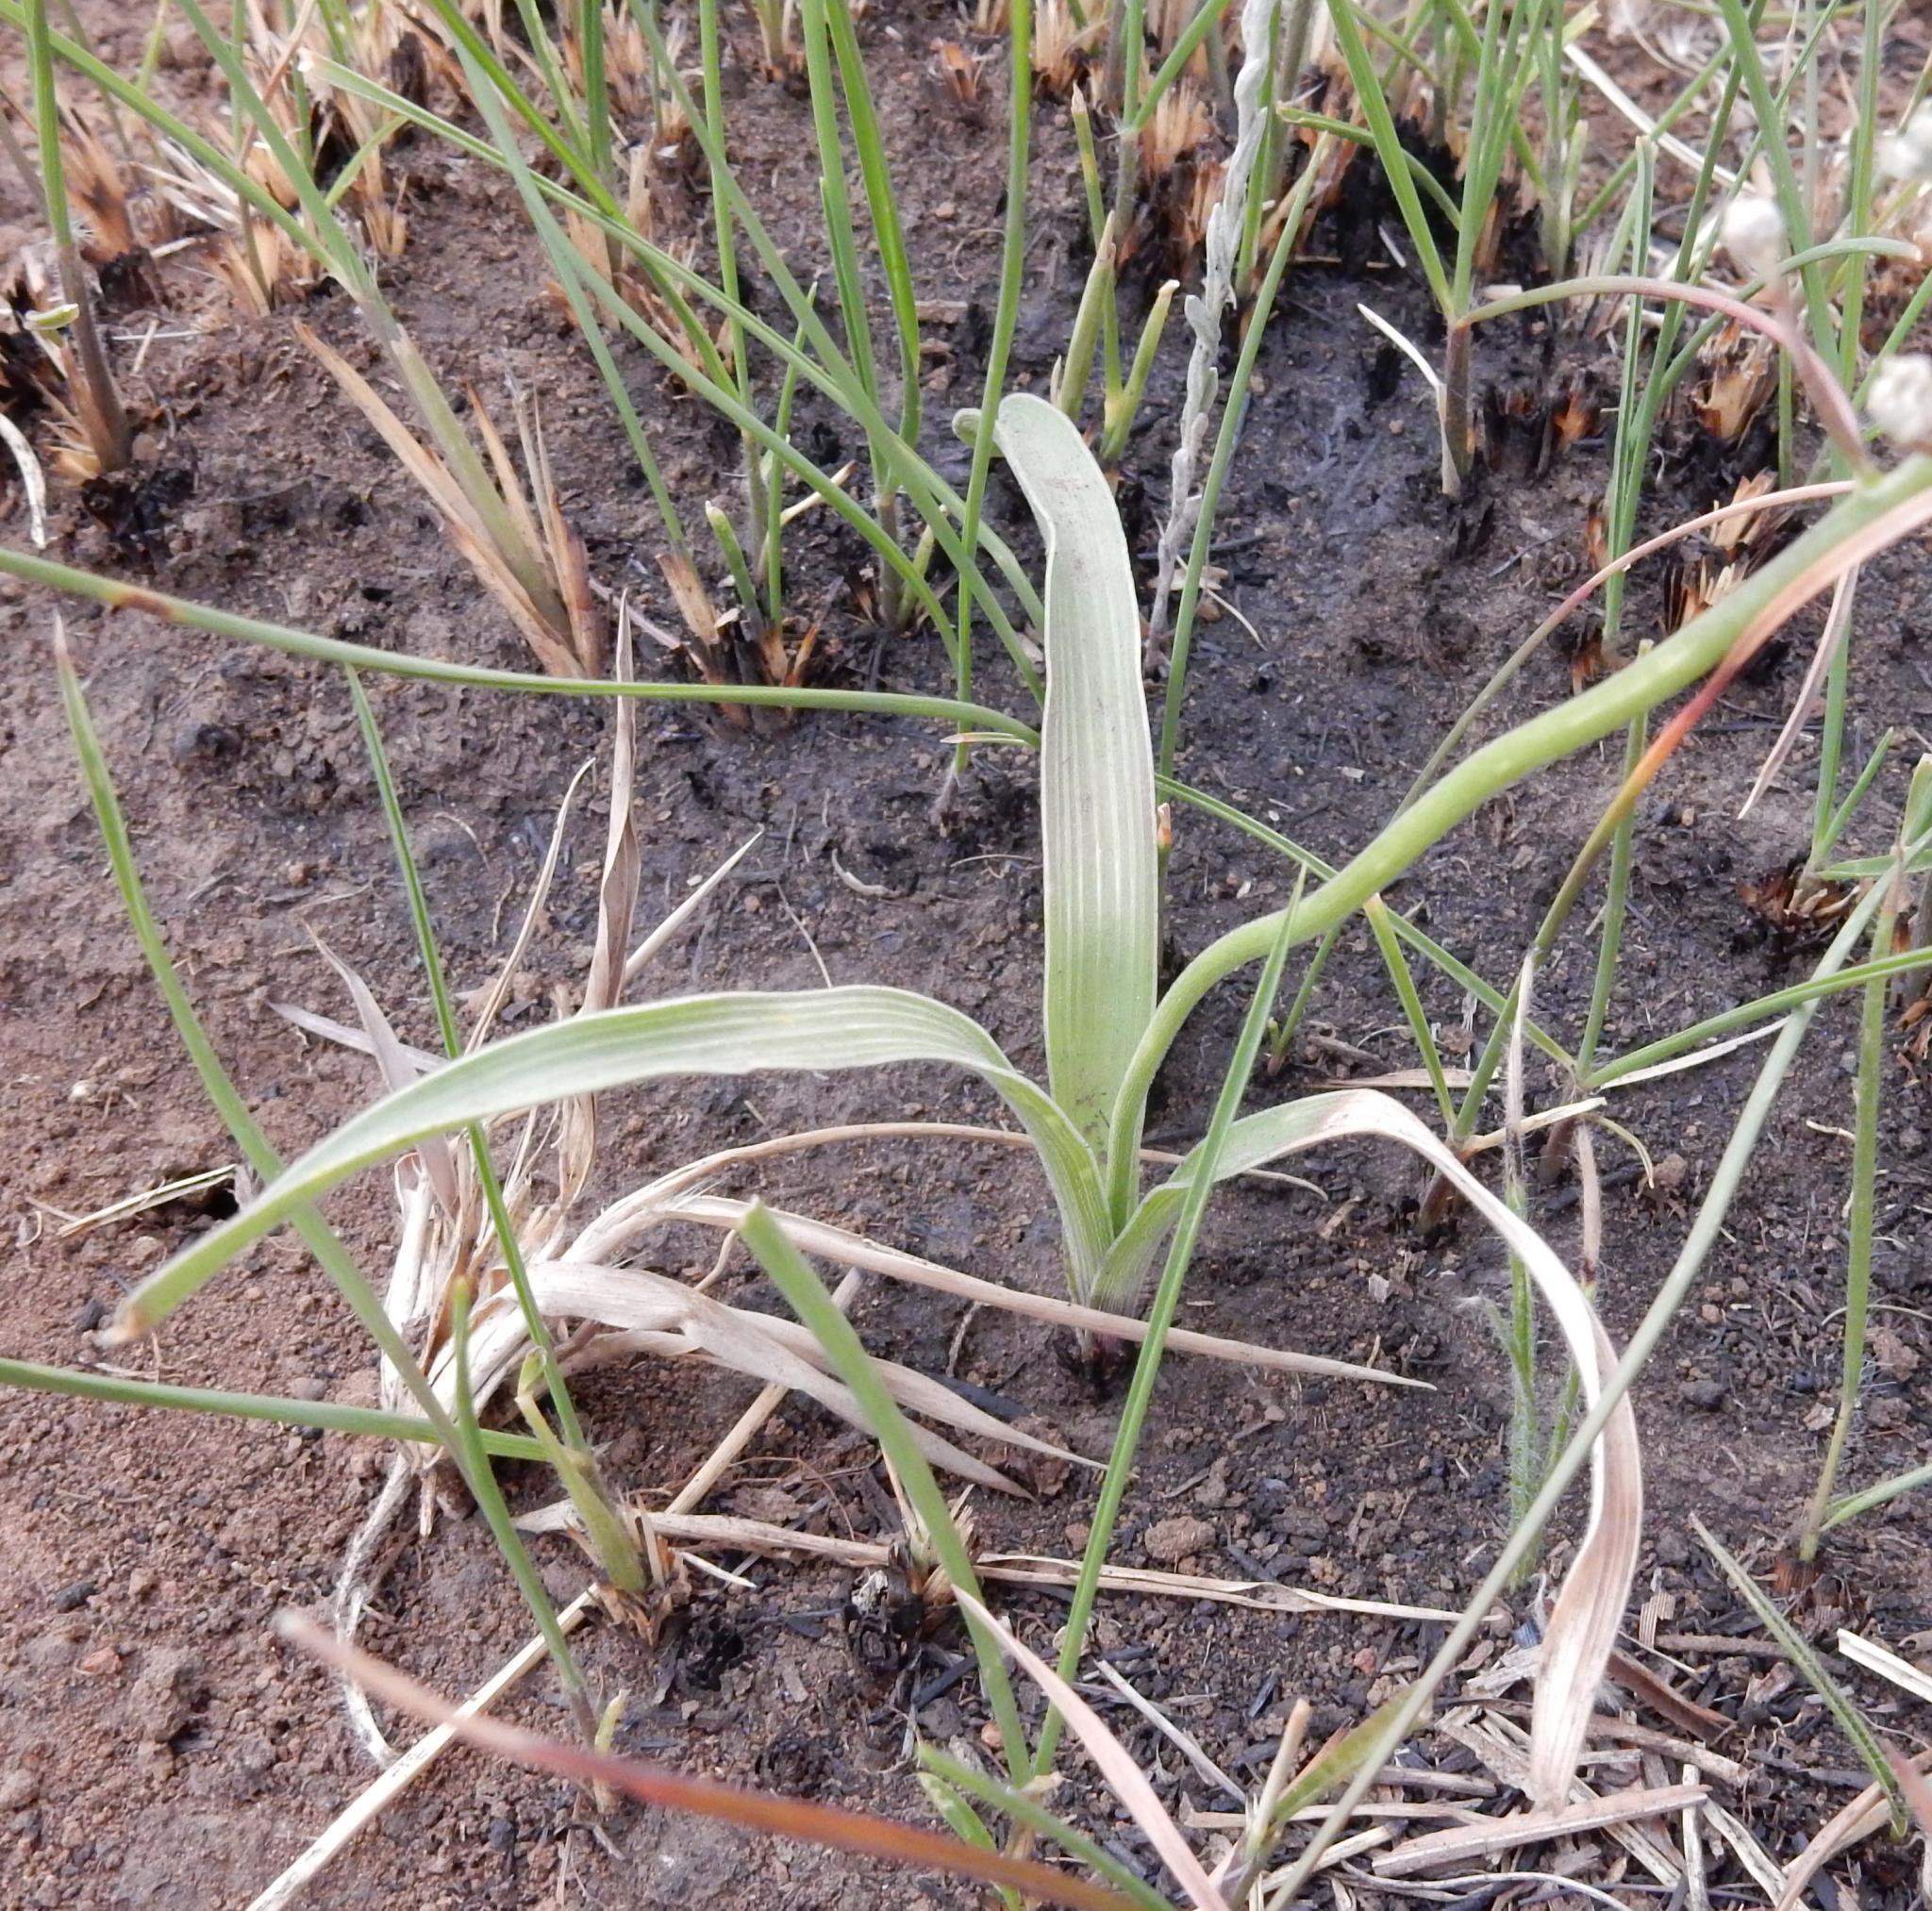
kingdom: Plantae
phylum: Tracheophyta
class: Liliopsida
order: Asparagales
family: Asparagaceae
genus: Schizocarphus
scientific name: Schizocarphus nervosus
